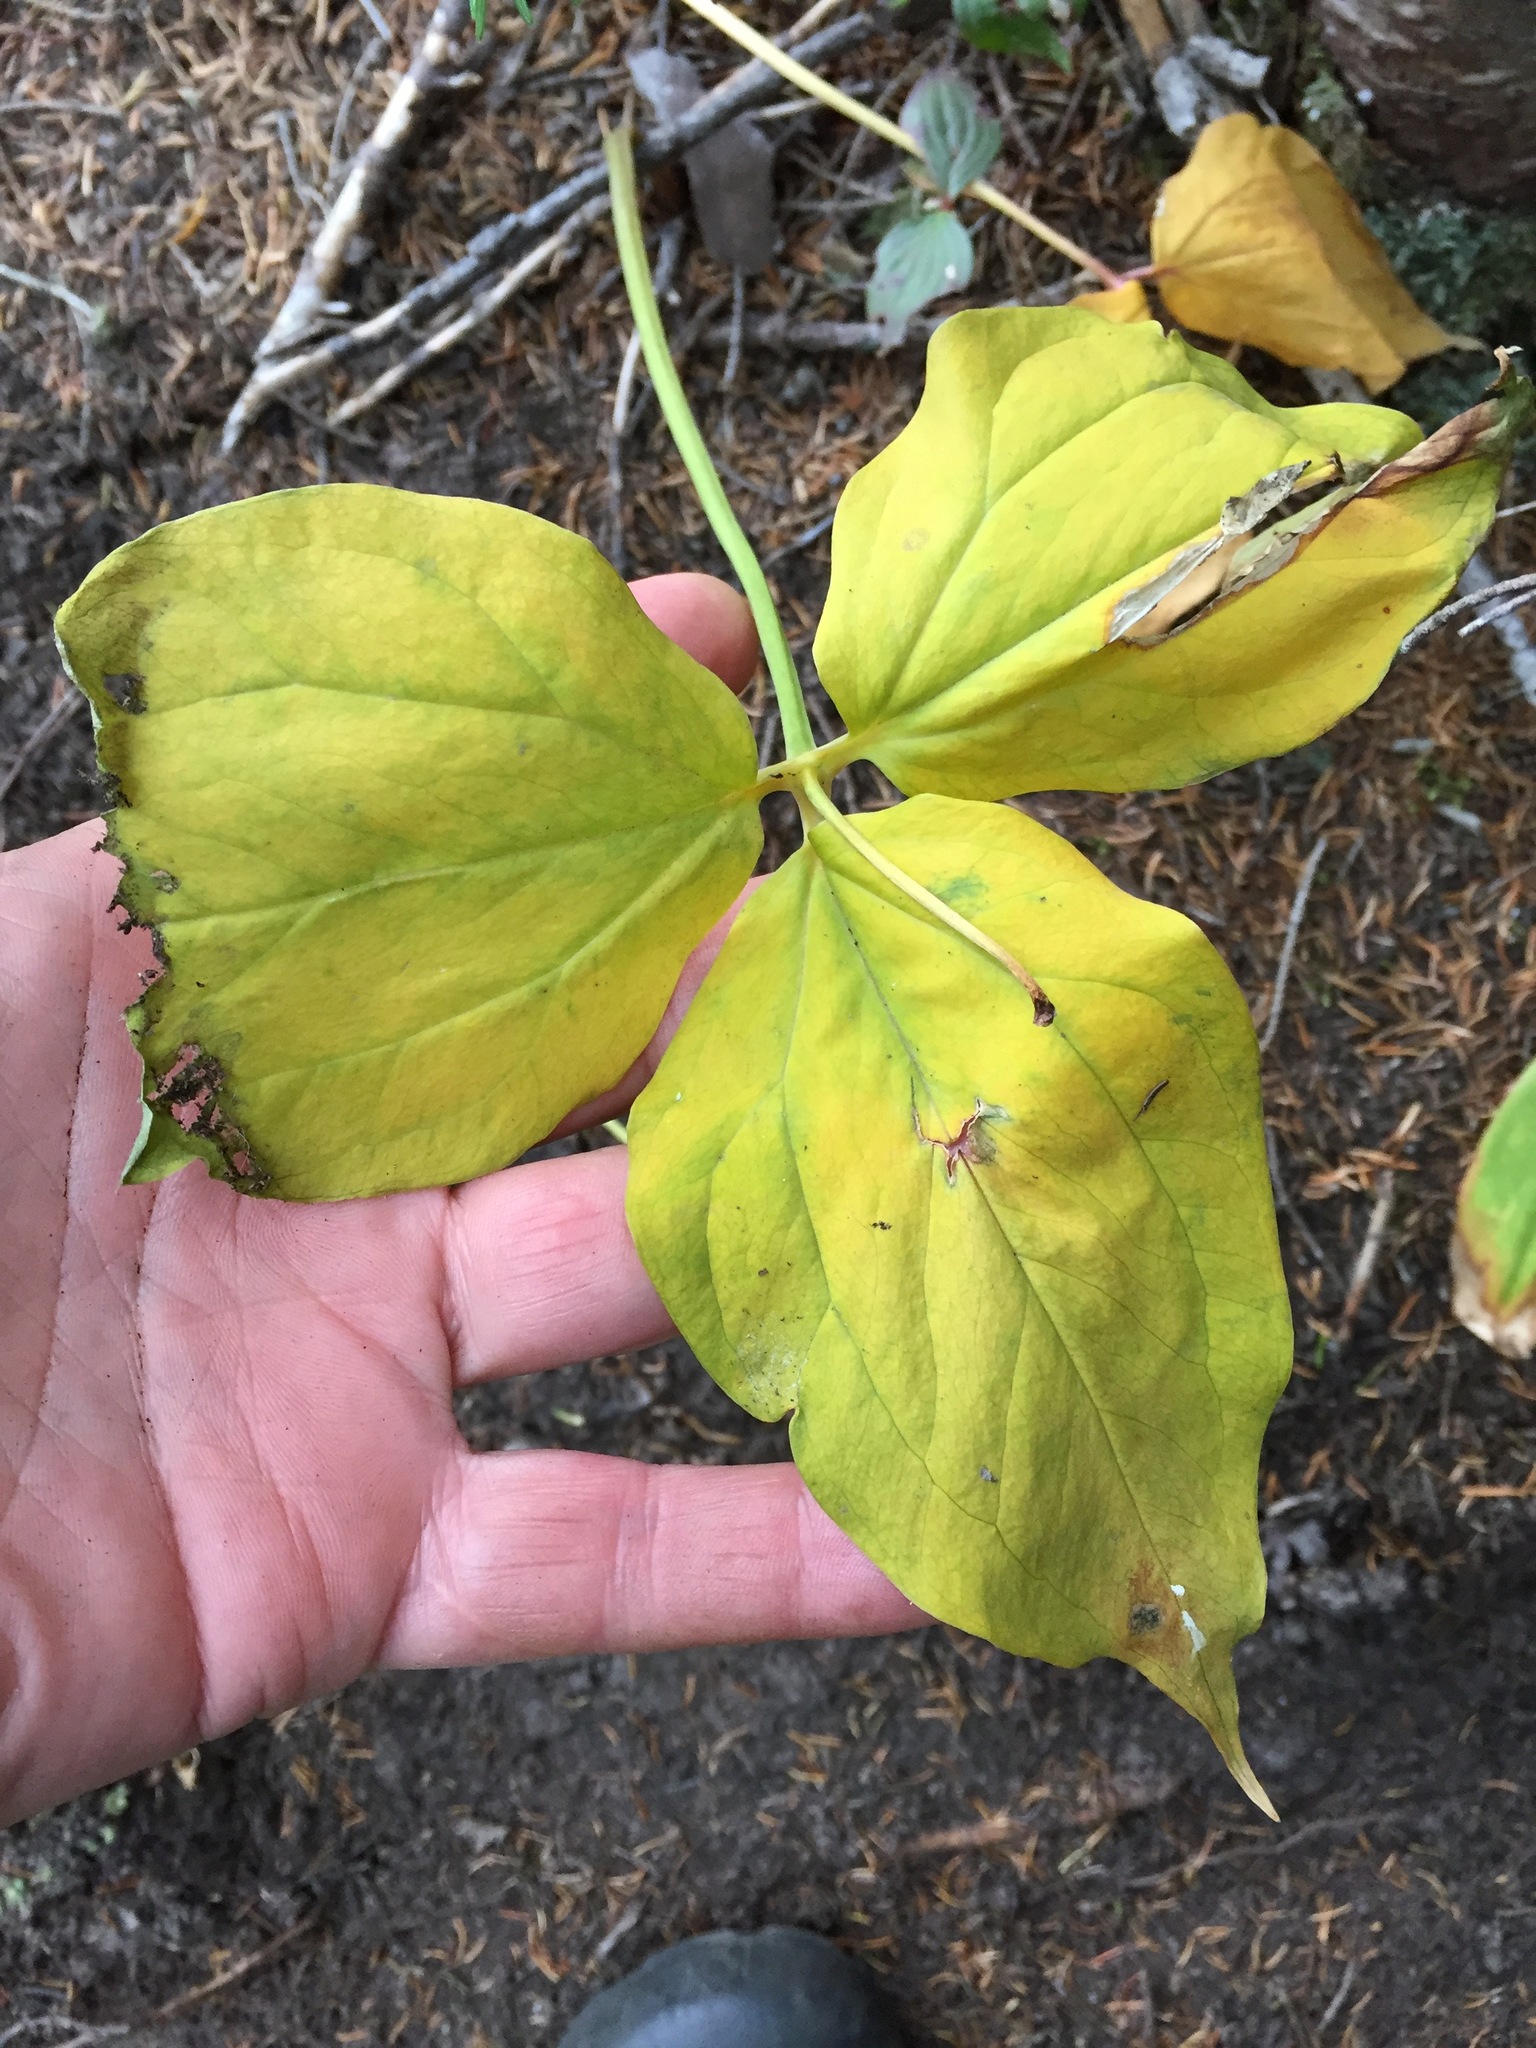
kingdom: Plantae
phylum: Tracheophyta
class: Liliopsida
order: Liliales
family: Melanthiaceae
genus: Trillium
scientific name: Trillium undulatum
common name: Paint trillium
